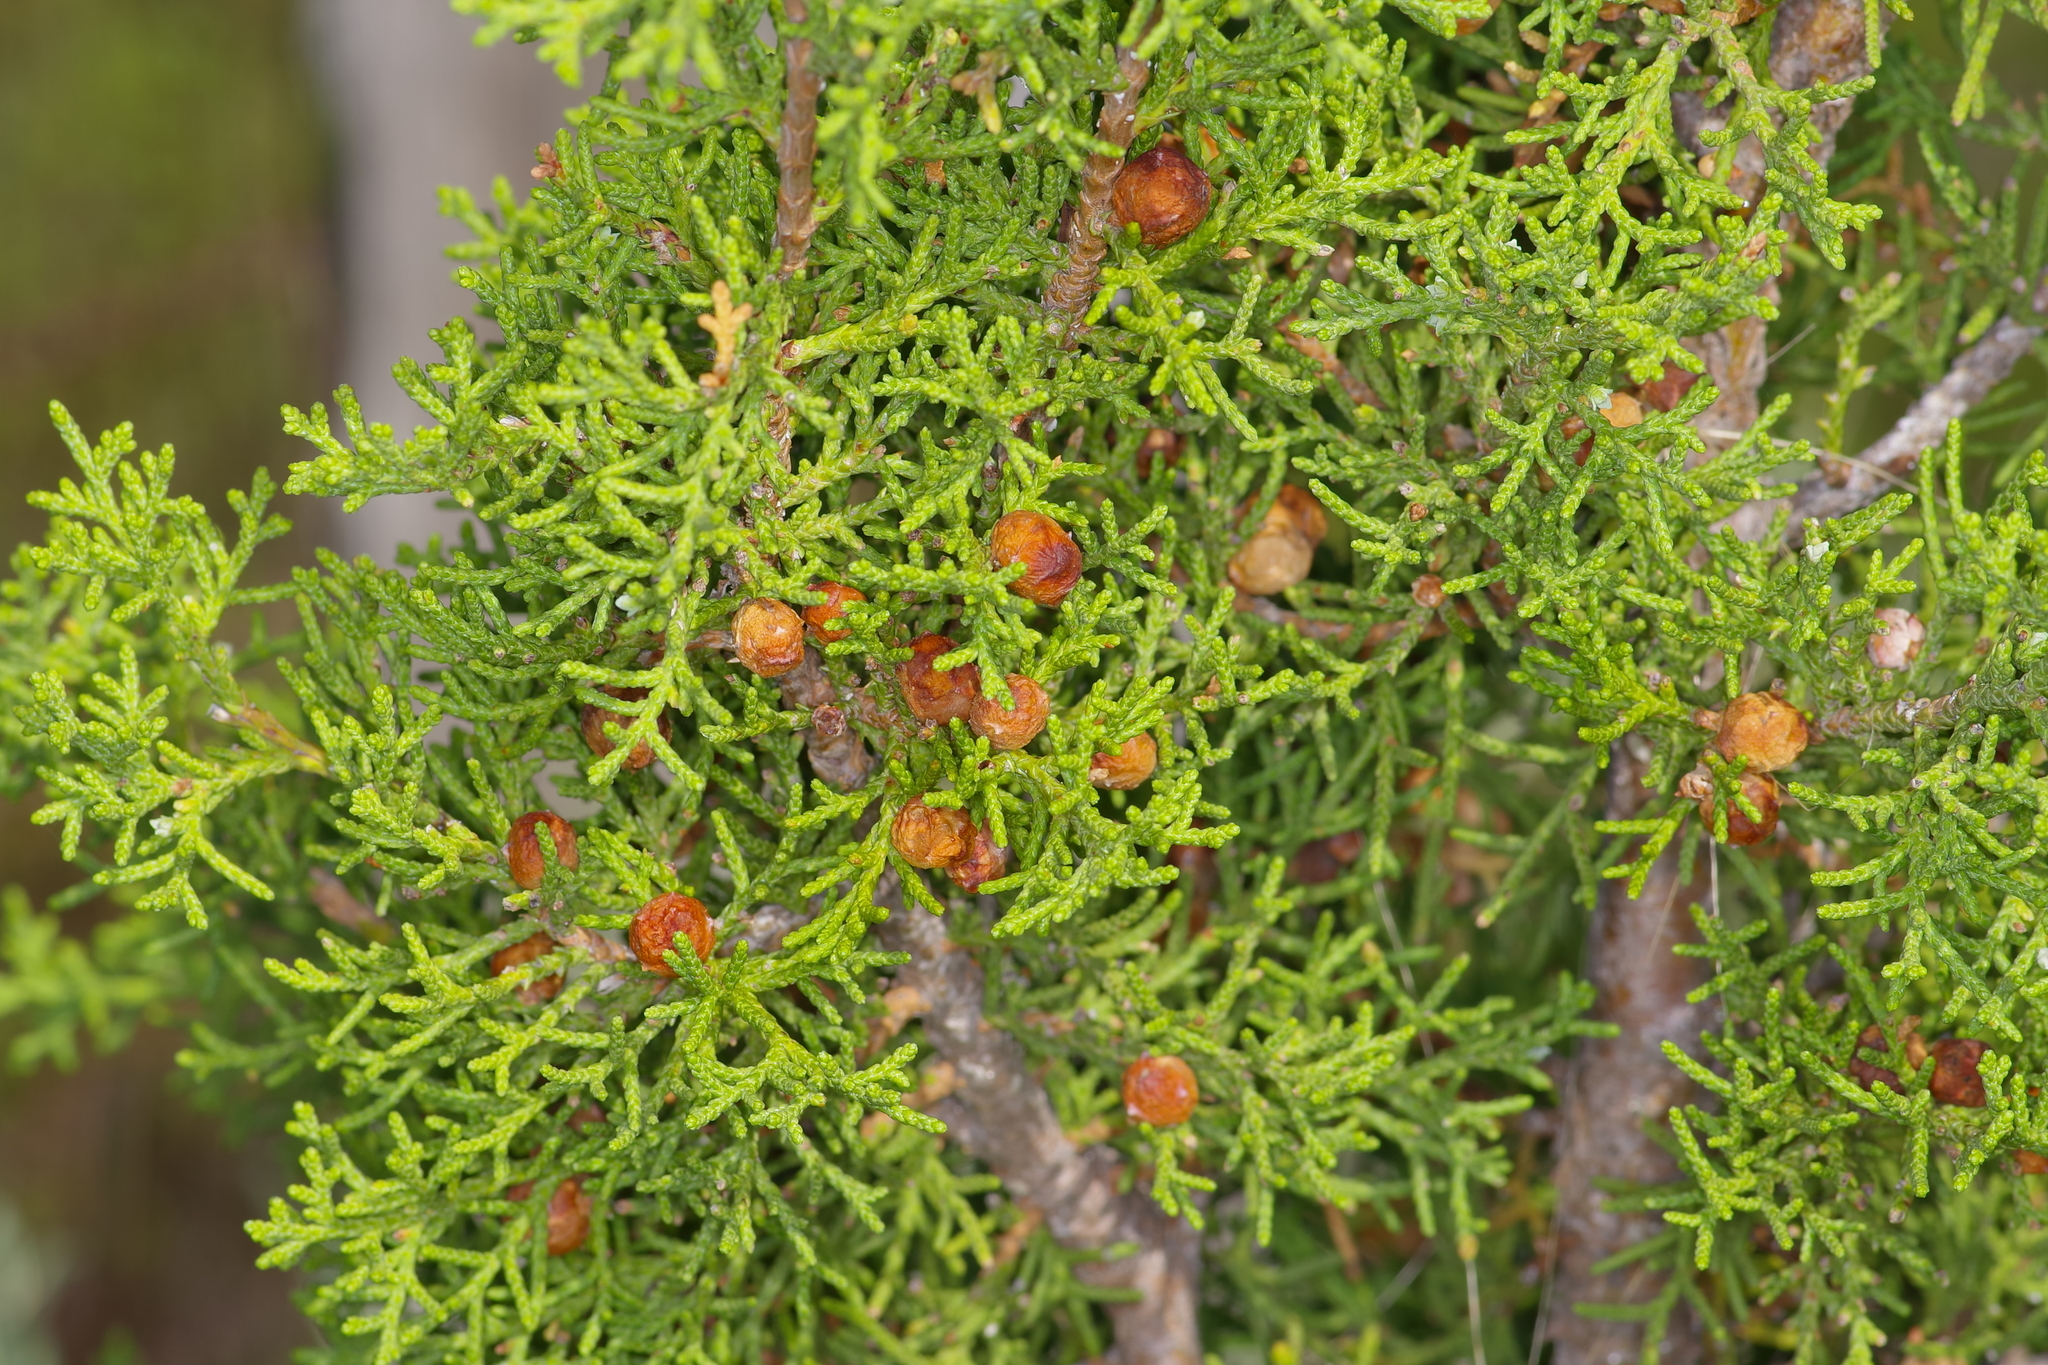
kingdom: Plantae
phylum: Tracheophyta
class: Pinopsida
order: Pinales
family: Cupressaceae
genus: Juniperus
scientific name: Juniperus pinchotii
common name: Pinchot juniper
